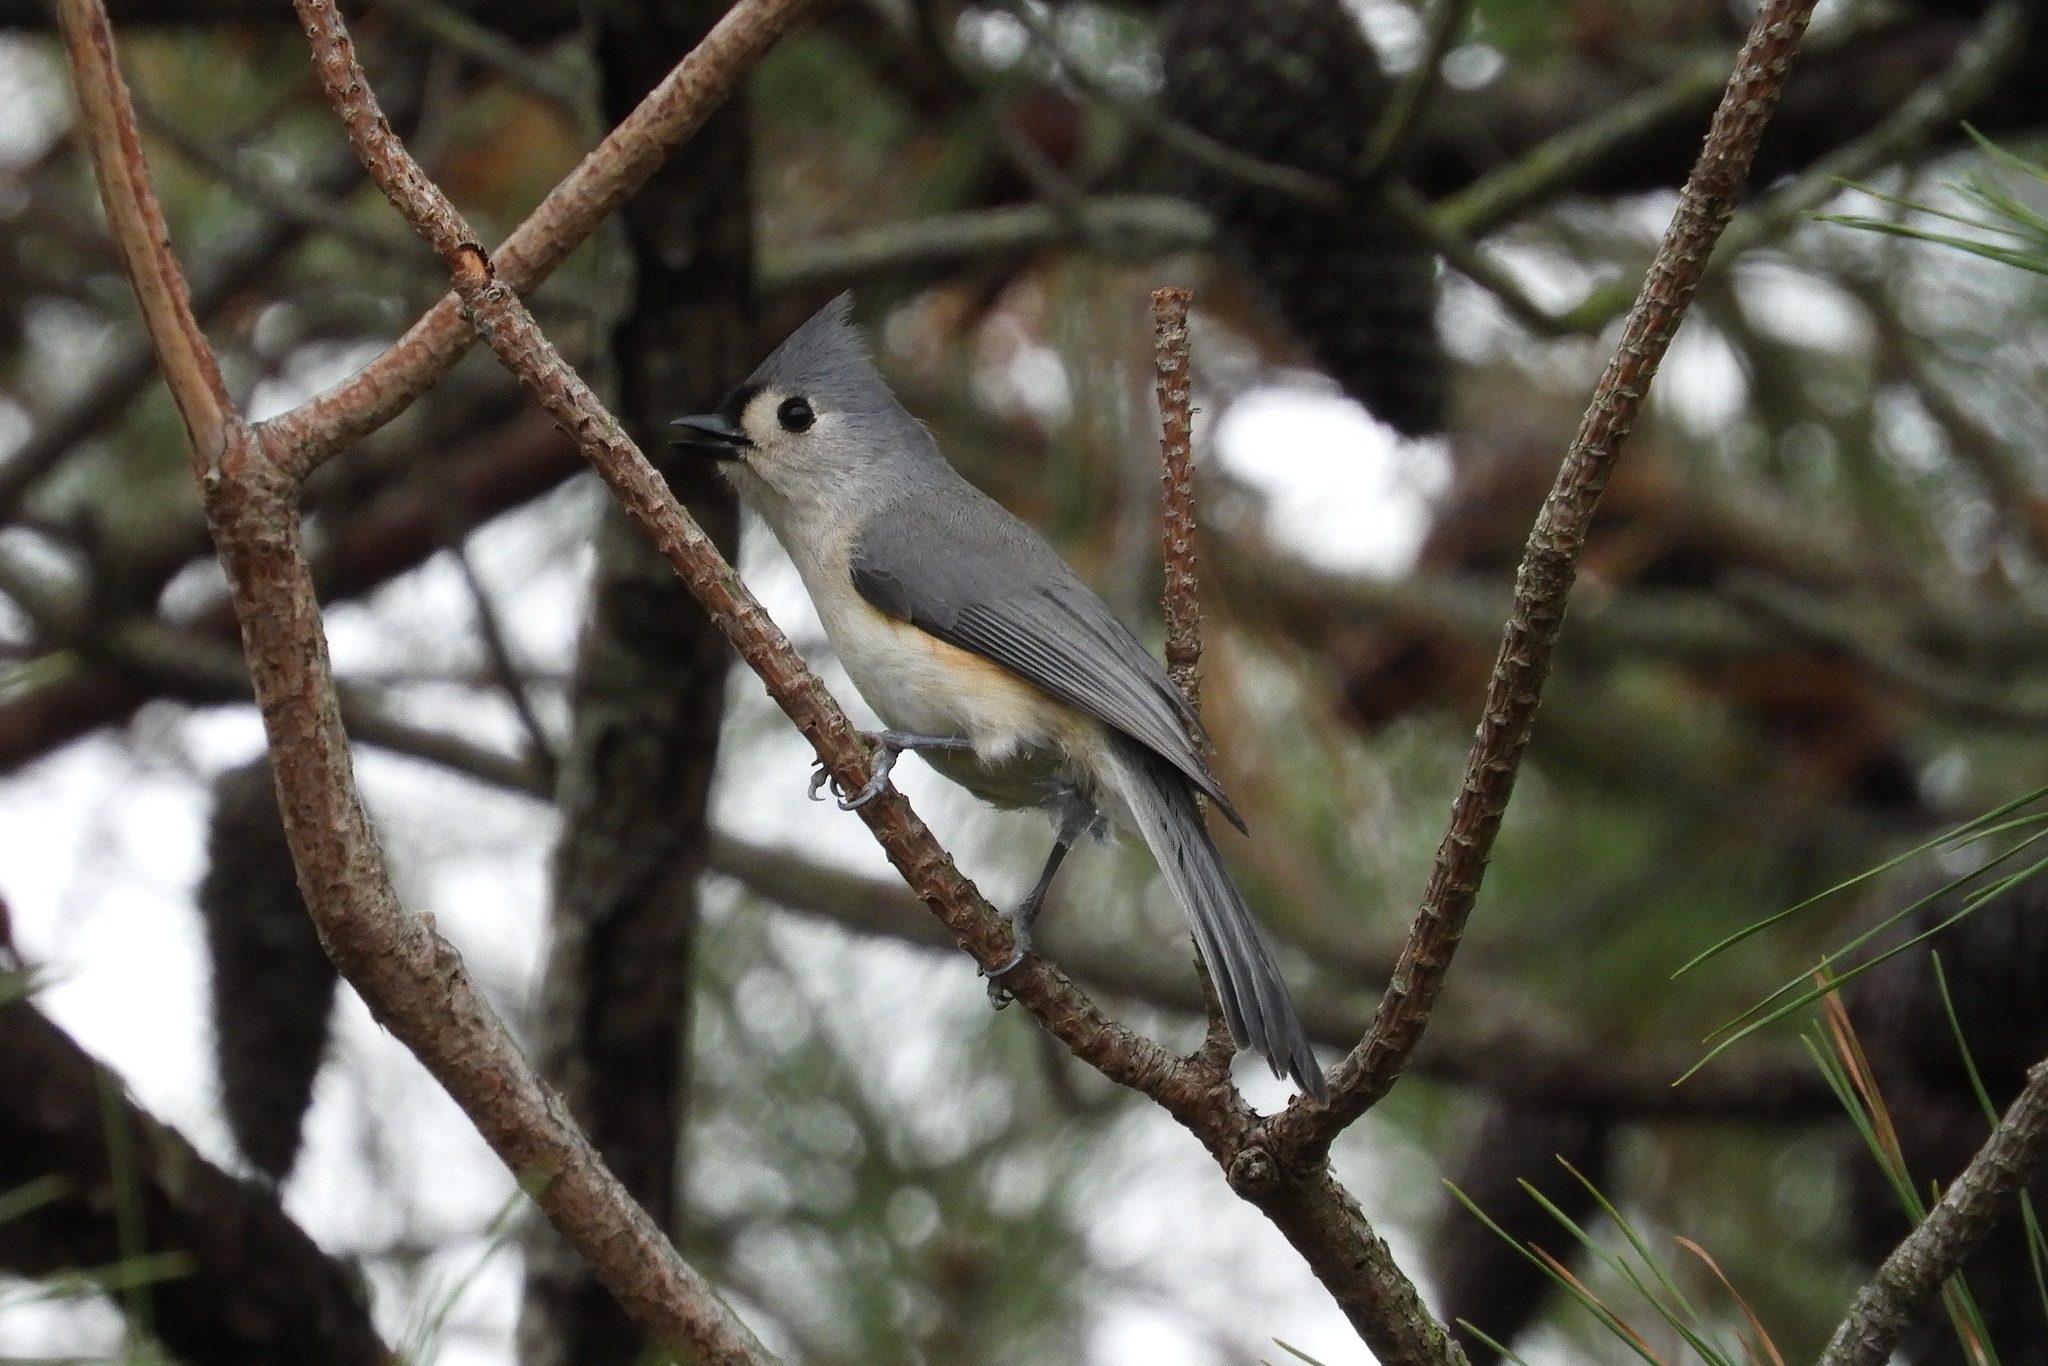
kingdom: Animalia
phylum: Chordata
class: Aves
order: Passeriformes
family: Paridae
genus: Baeolophus
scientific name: Baeolophus bicolor
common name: Tufted titmouse
